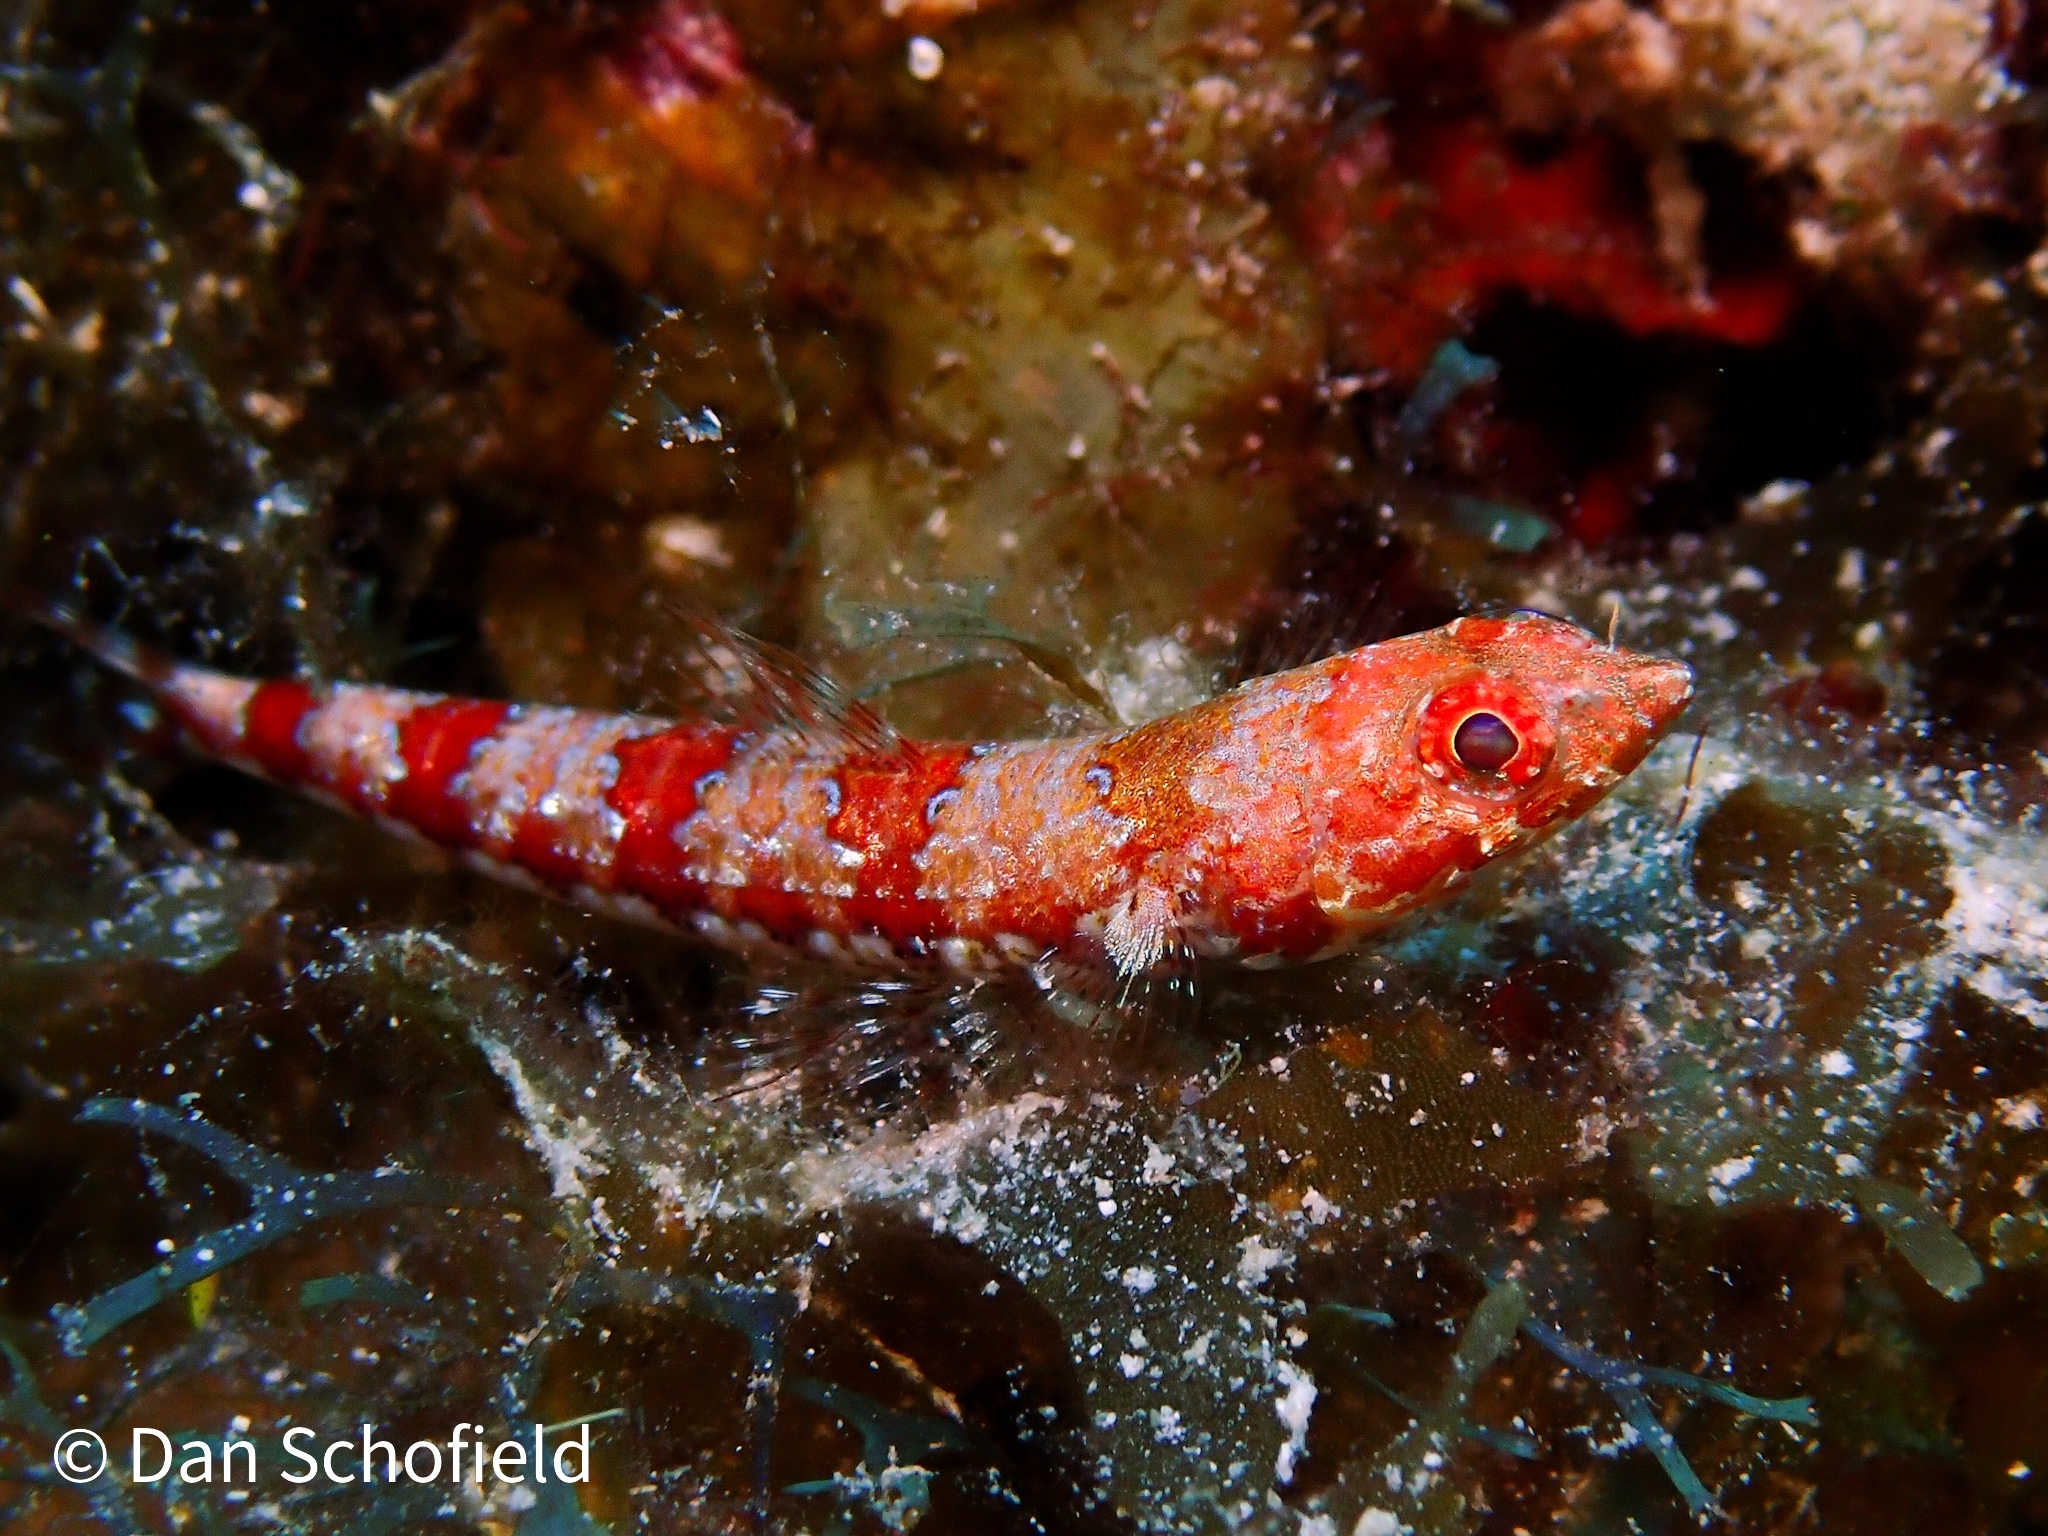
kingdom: Animalia
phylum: Chordata
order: Aulopiformes
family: Synodontidae
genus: Synodus
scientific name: Synodus synodus
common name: Red lizardfish
